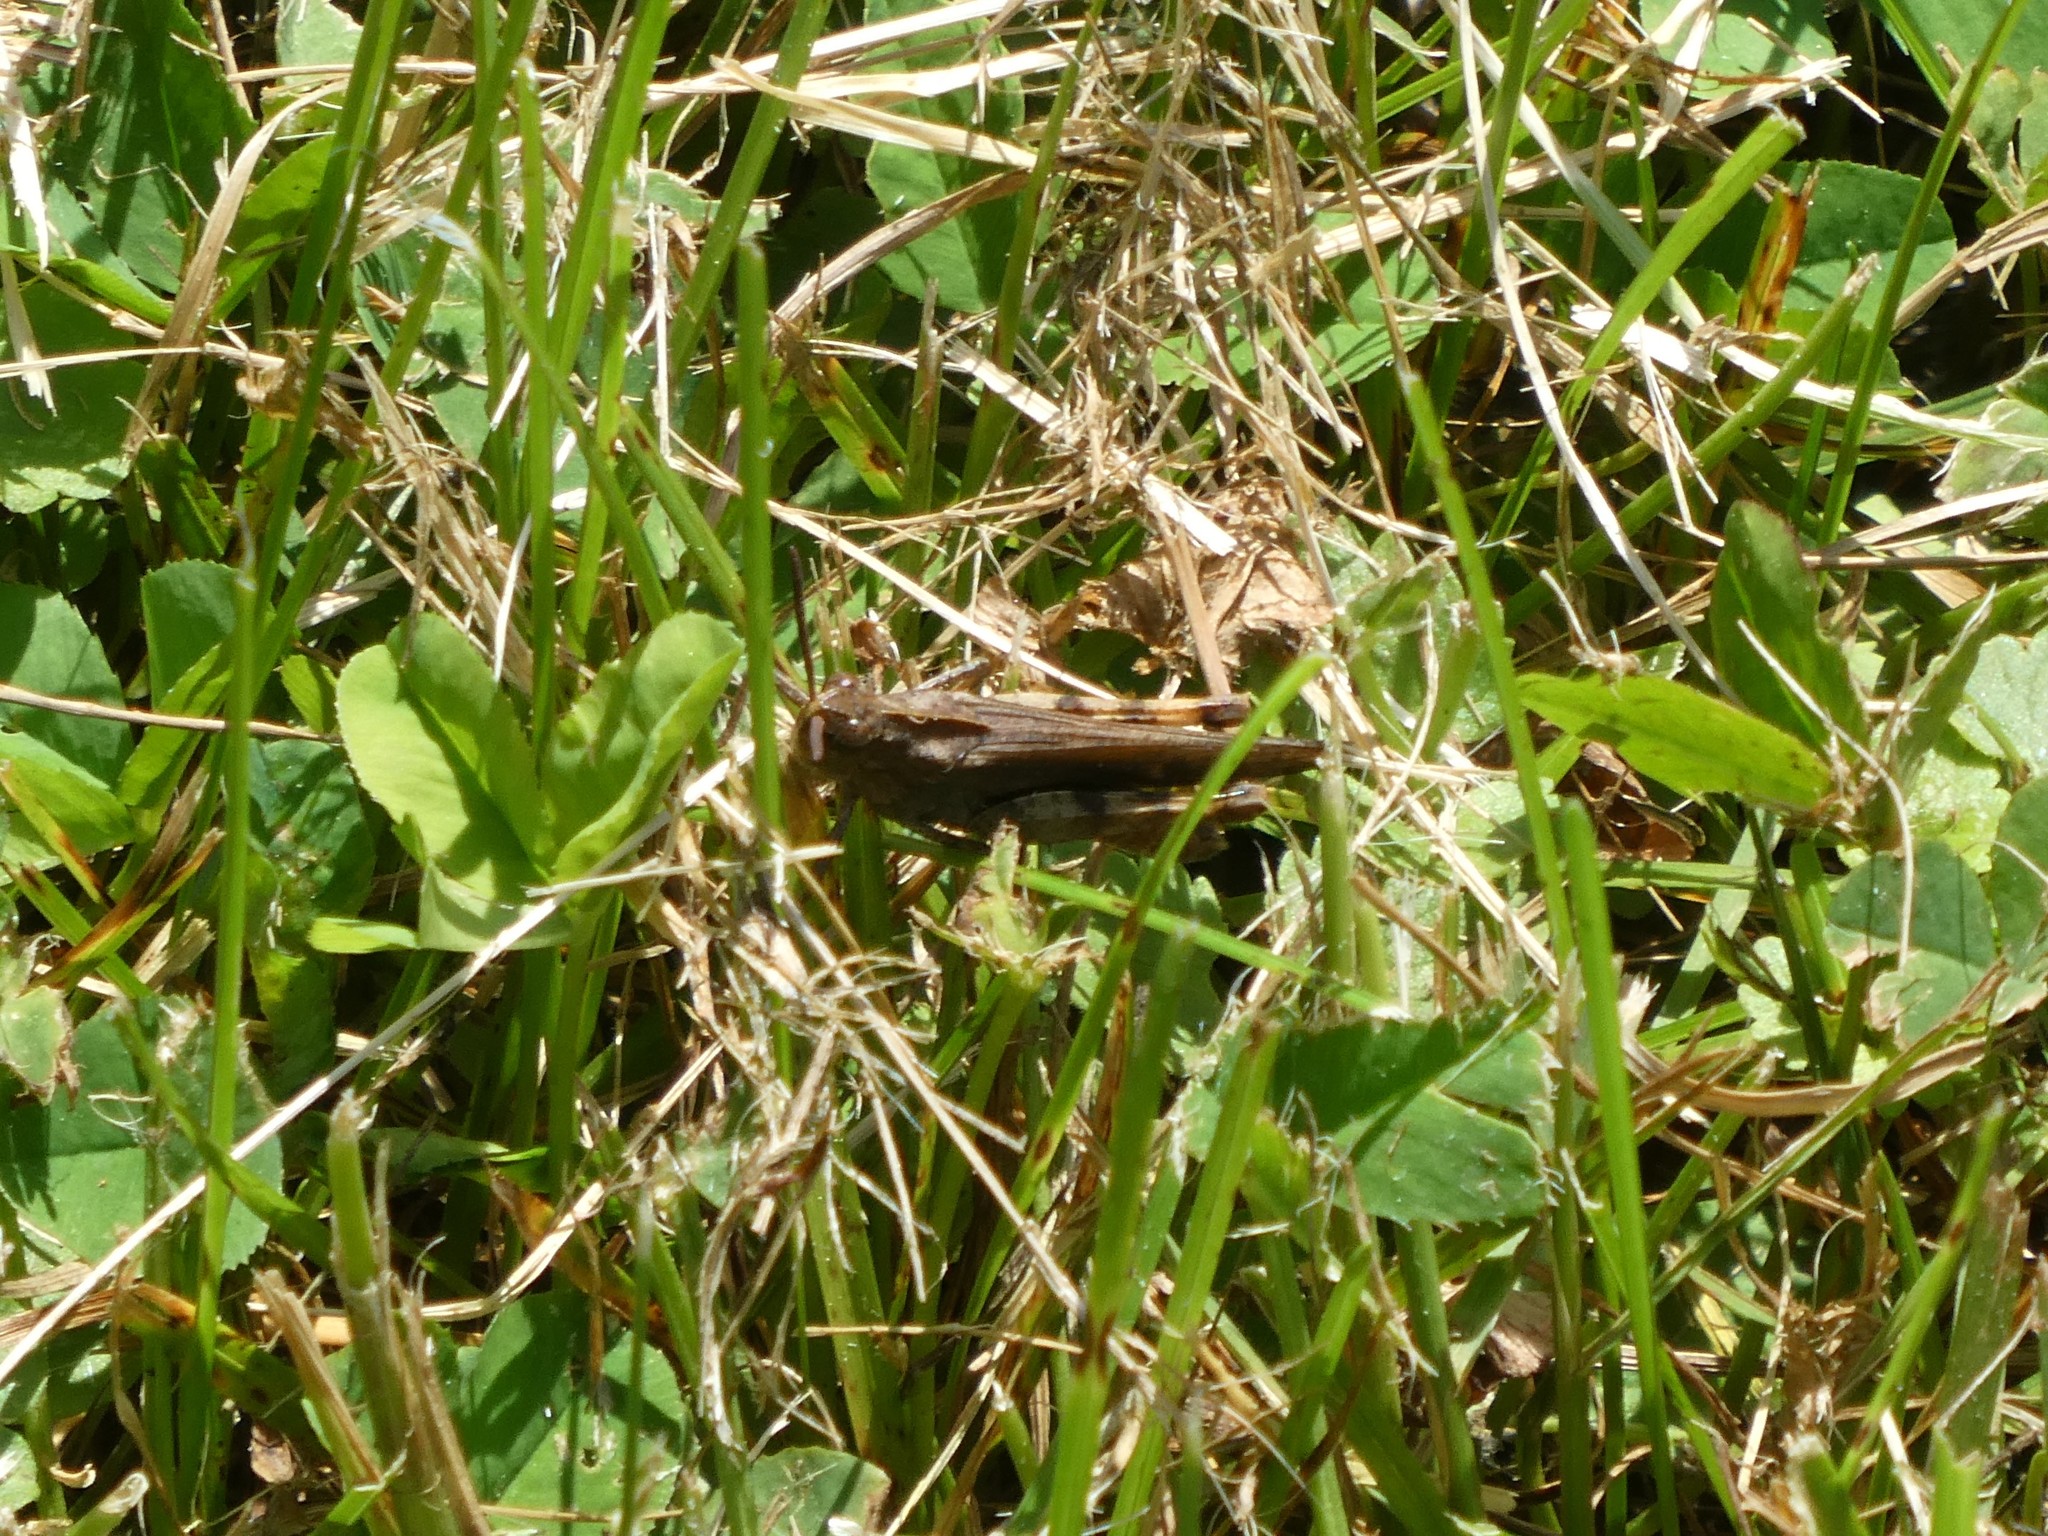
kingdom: Animalia
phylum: Arthropoda
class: Insecta
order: Orthoptera
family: Acrididae
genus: Chortophaga
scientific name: Chortophaga viridifasciata
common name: Green-striped grasshopper
